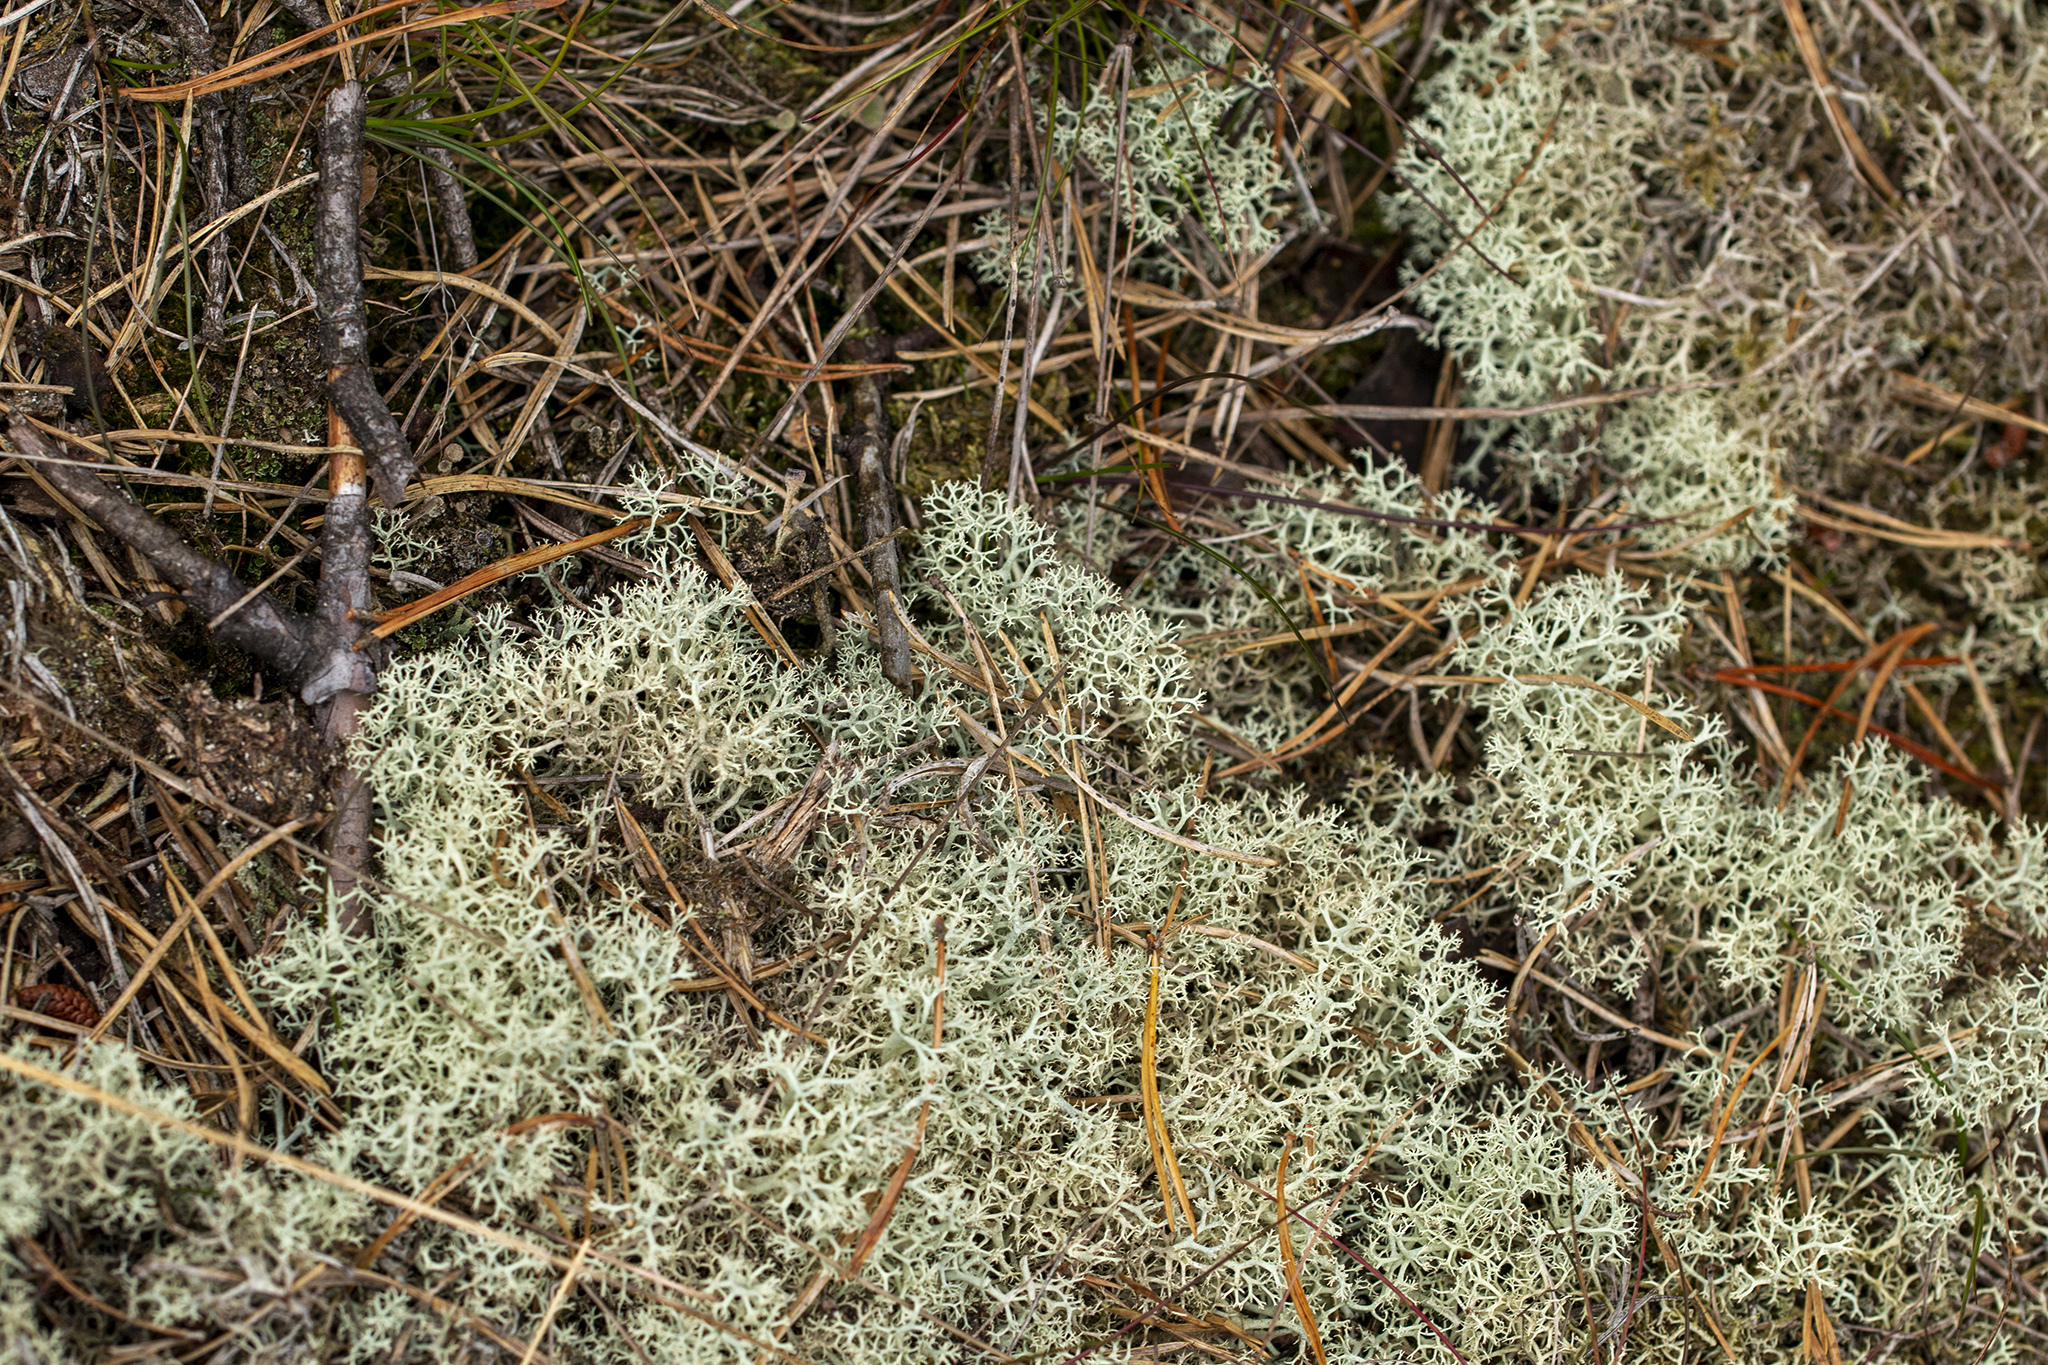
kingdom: Fungi
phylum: Ascomycota
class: Lecanoromycetes
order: Lecanorales
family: Cladoniaceae
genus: Cladonia
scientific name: Cladonia portentosa
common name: Reindeer lichen
